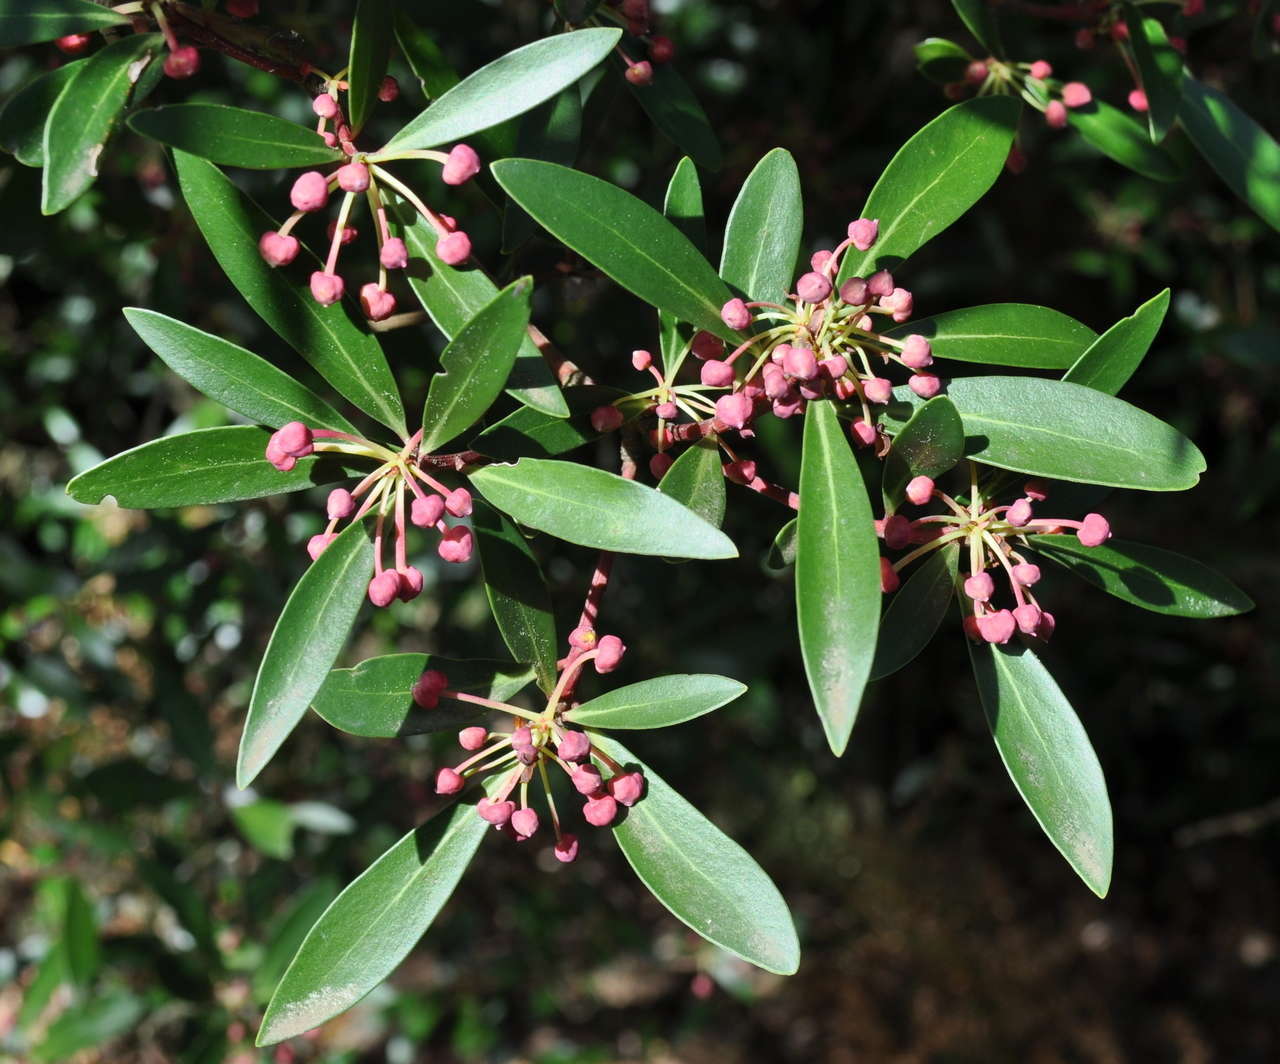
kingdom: Plantae
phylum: Tracheophyta
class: Magnoliopsida
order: Canellales
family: Winteraceae
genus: Drimys
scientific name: Drimys aromatica
